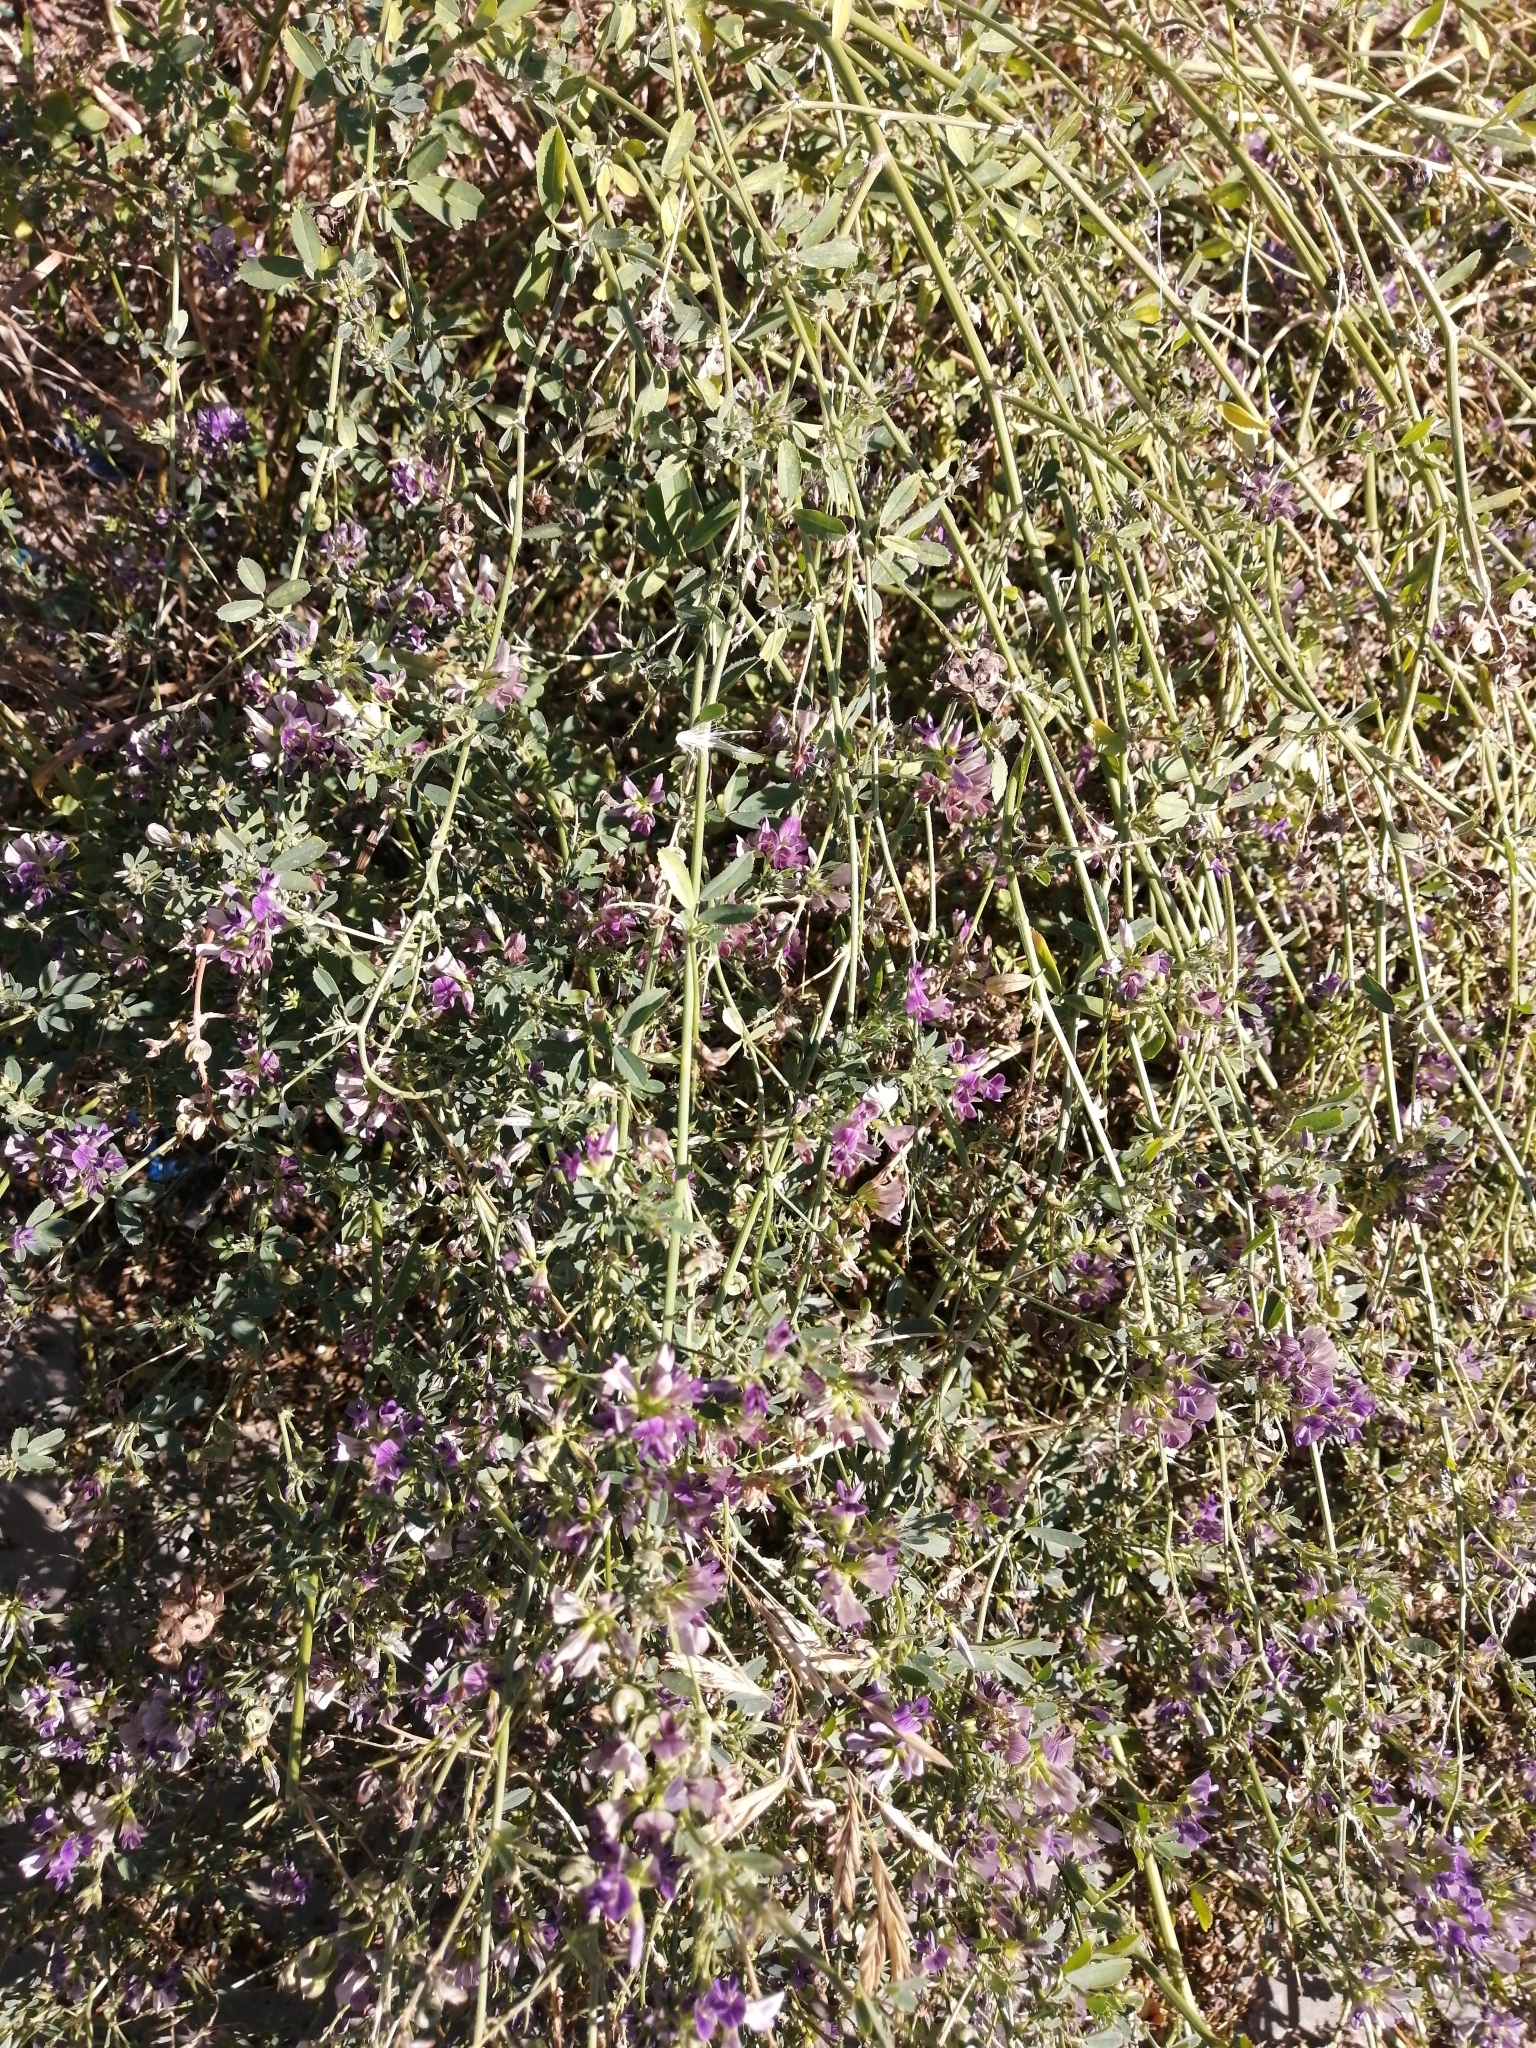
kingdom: Plantae
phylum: Tracheophyta
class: Magnoliopsida
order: Fabales
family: Fabaceae
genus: Medicago
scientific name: Medicago varia
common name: Sand lucerne
